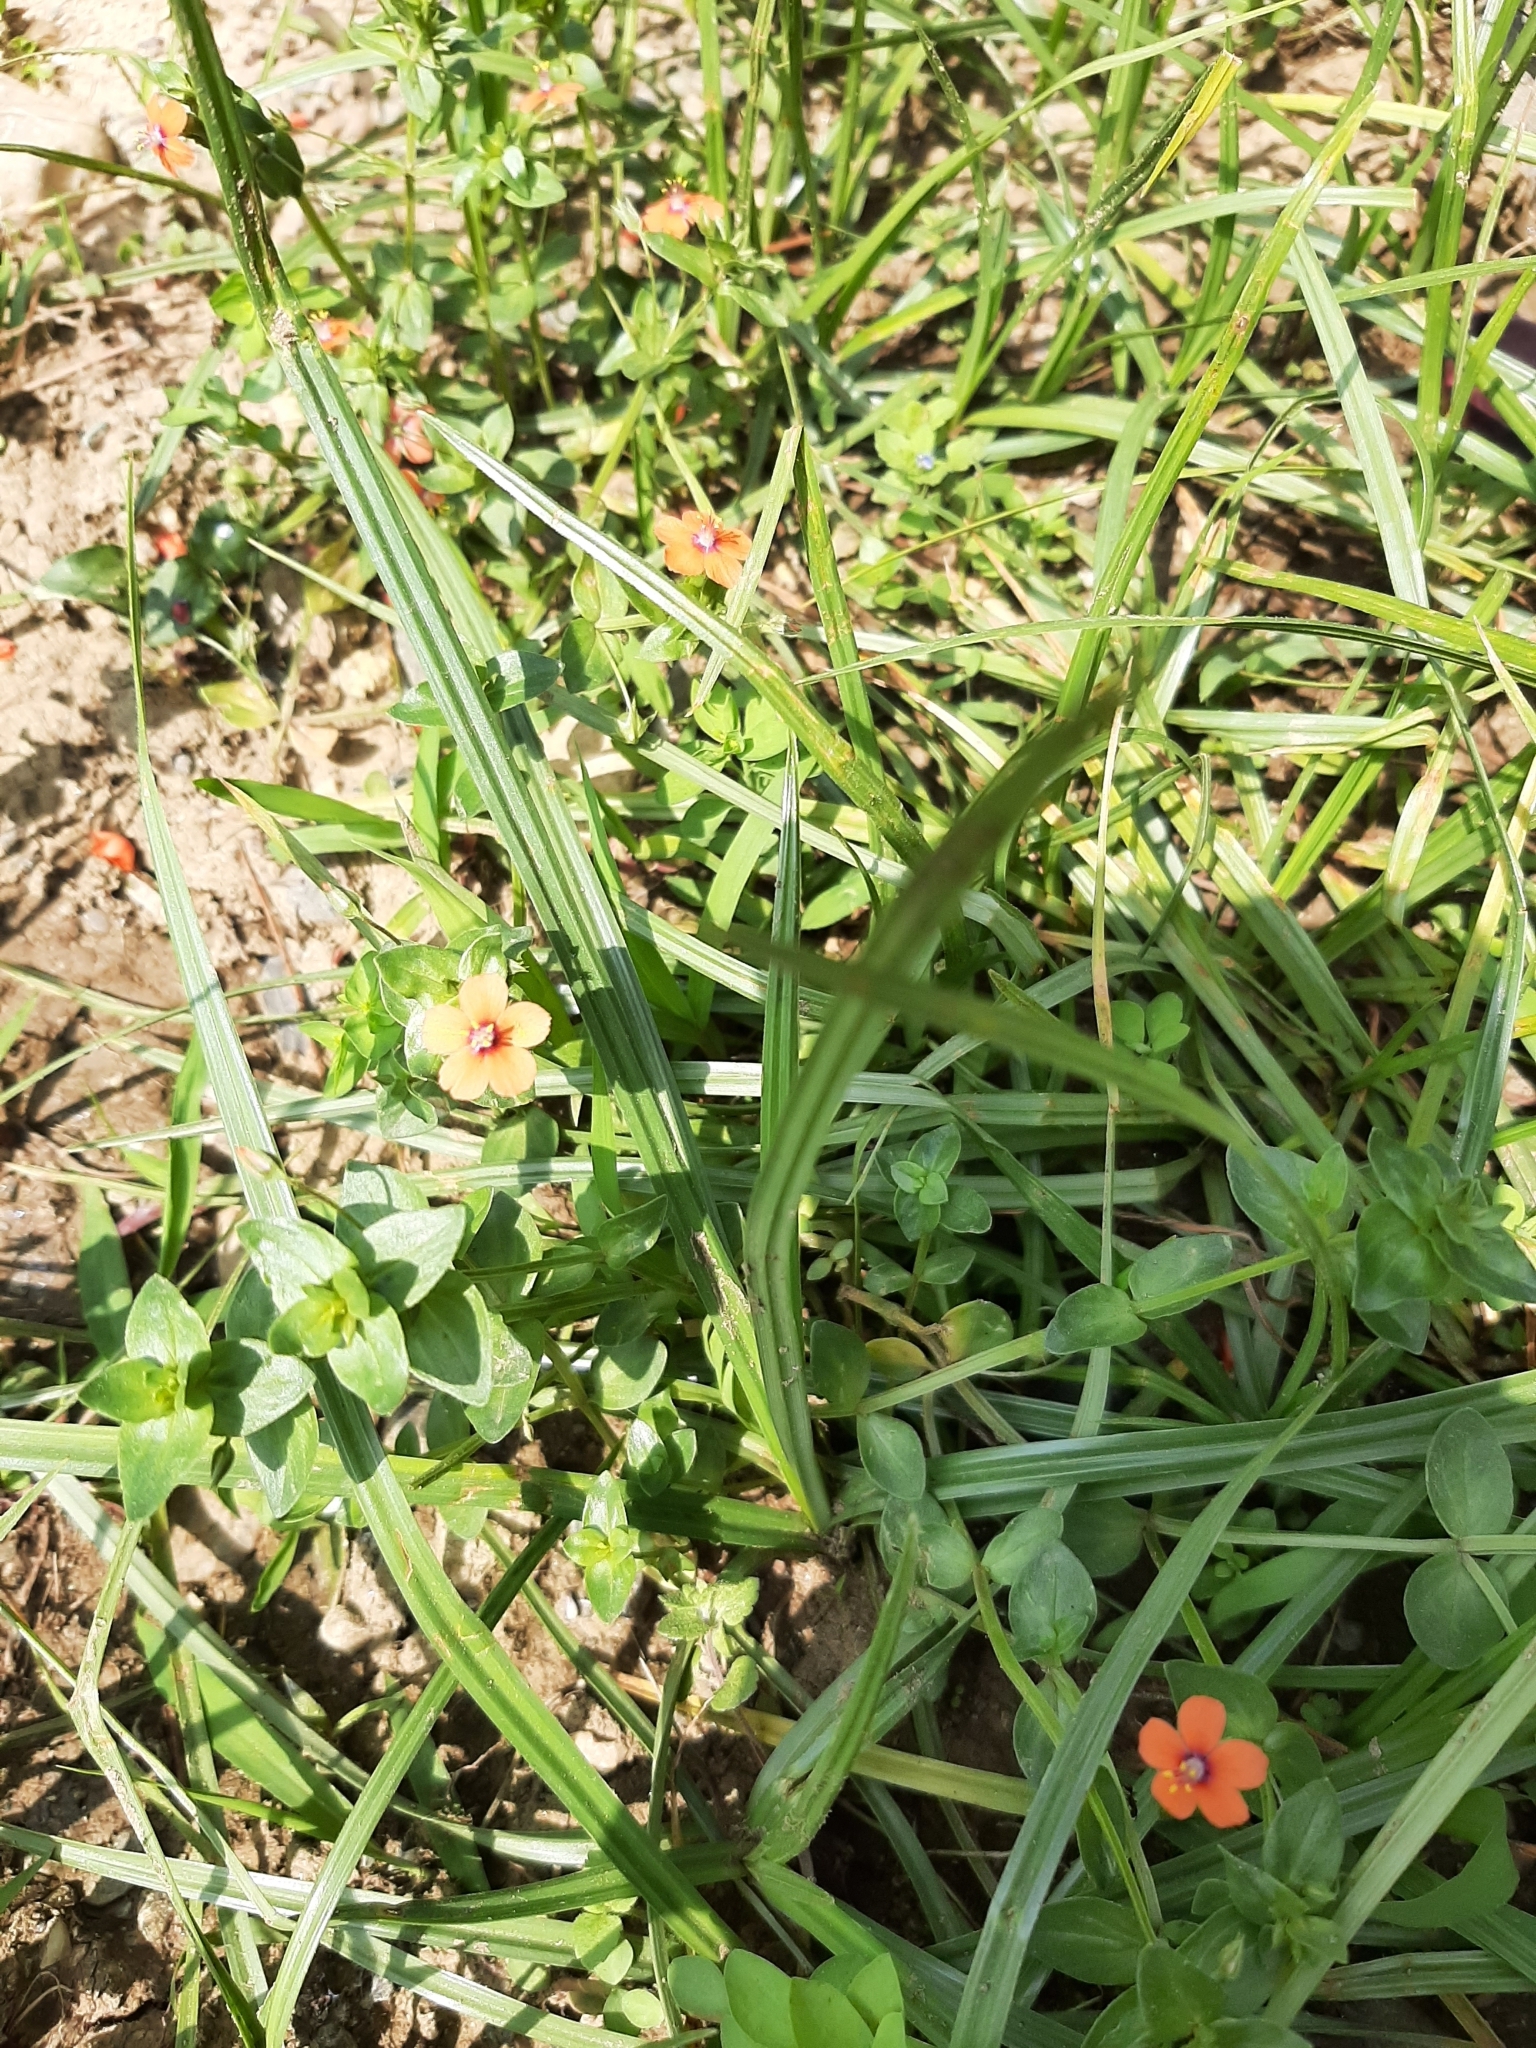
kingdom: Plantae
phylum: Tracheophyta
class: Magnoliopsida
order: Ericales
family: Primulaceae
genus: Lysimachia
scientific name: Lysimachia arvensis
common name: Scarlet pimpernel
